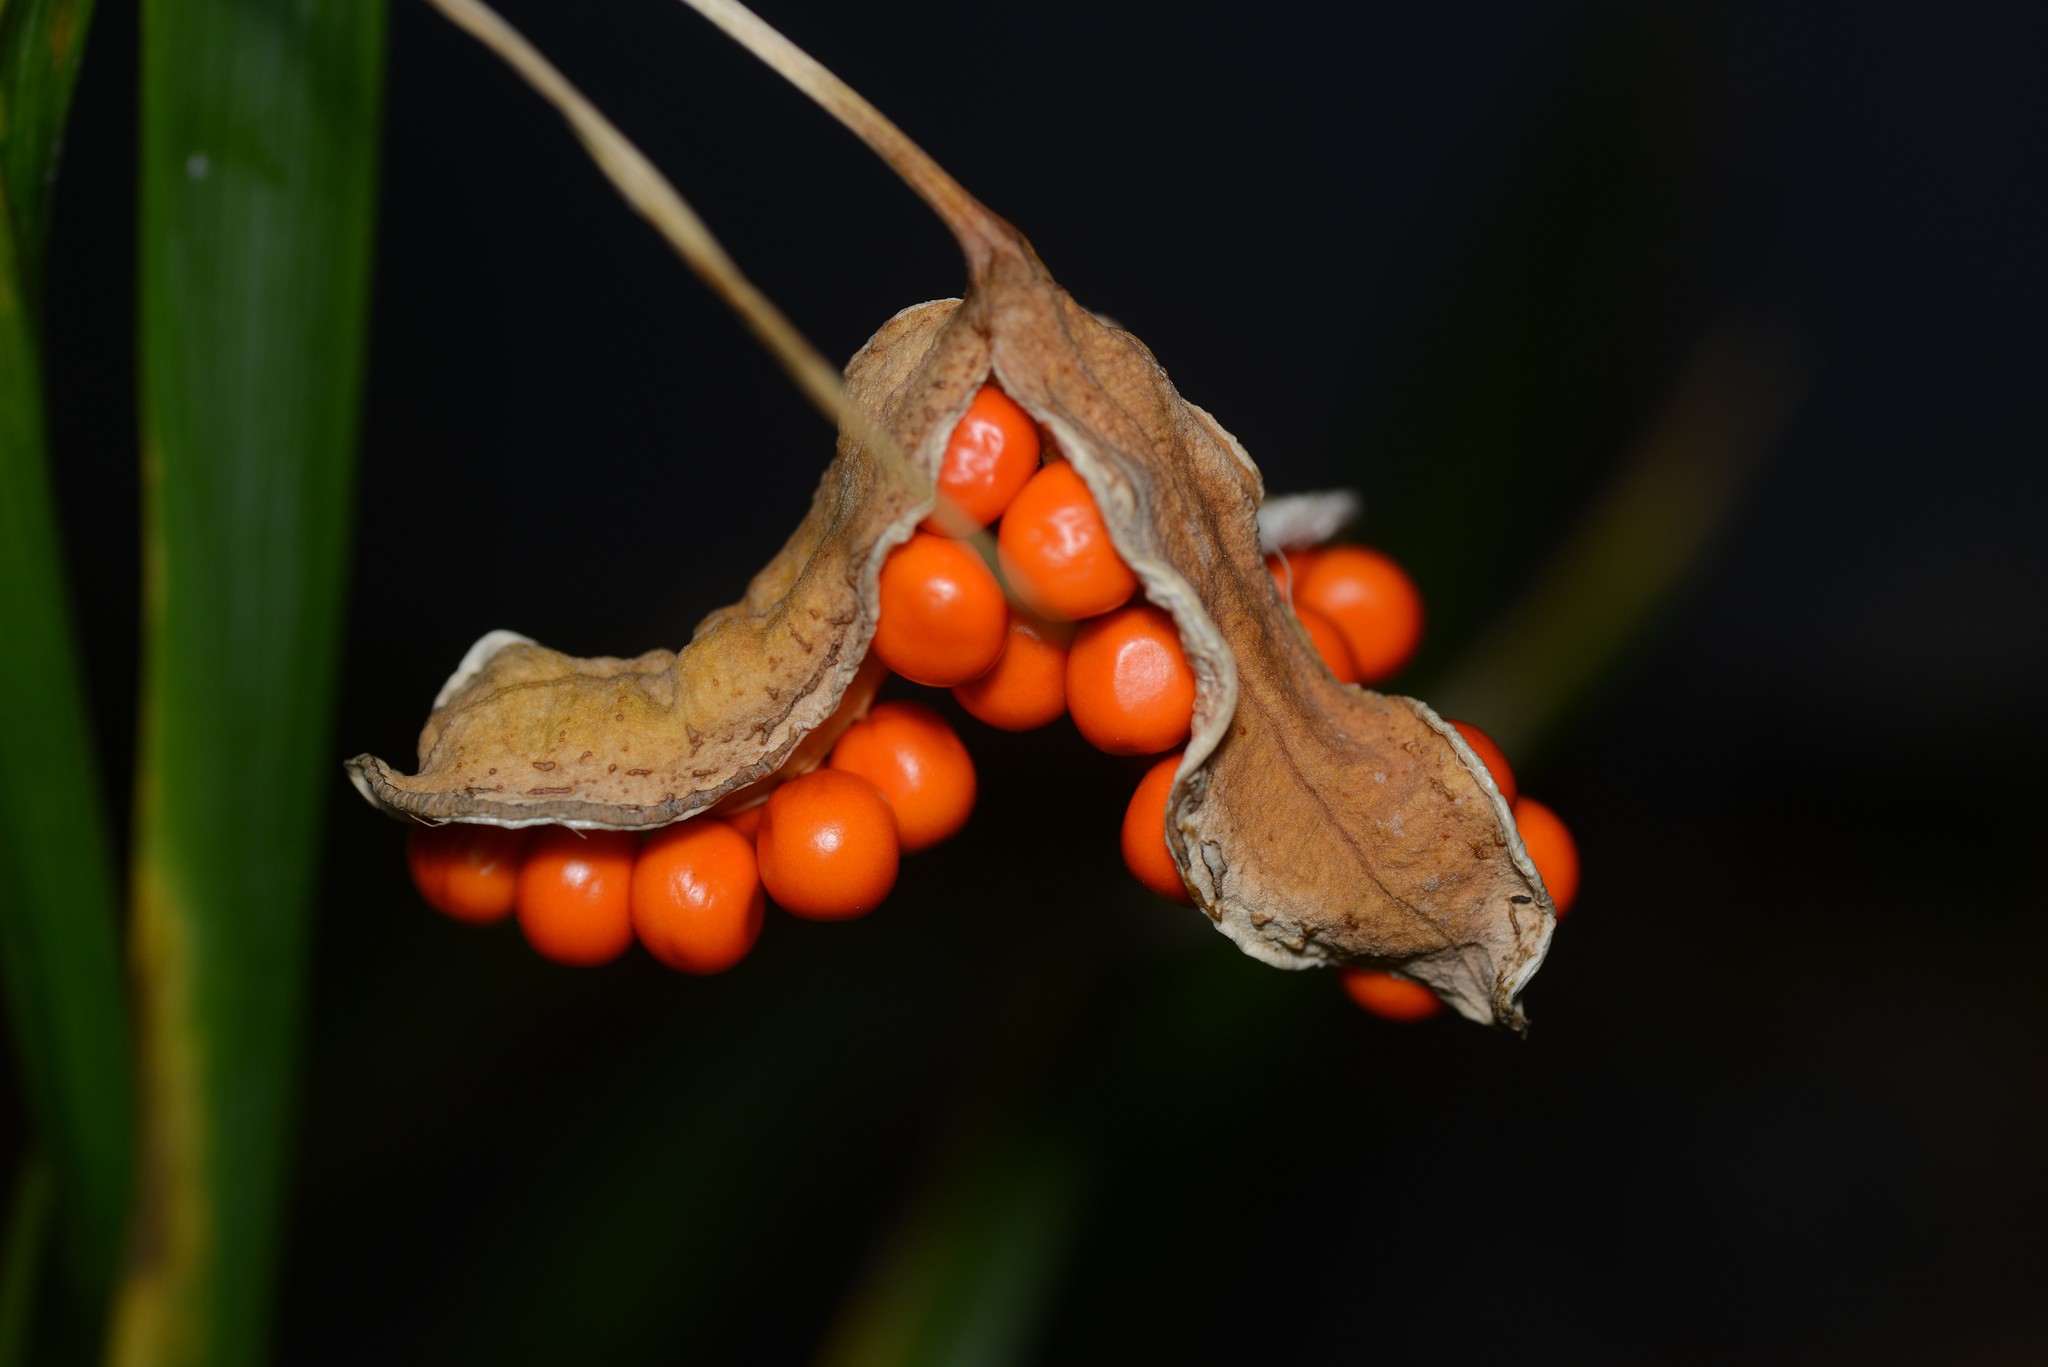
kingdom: Plantae
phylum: Tracheophyta
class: Liliopsida
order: Asparagales
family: Iridaceae
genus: Iris
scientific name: Iris foetidissima
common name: Stinking iris
